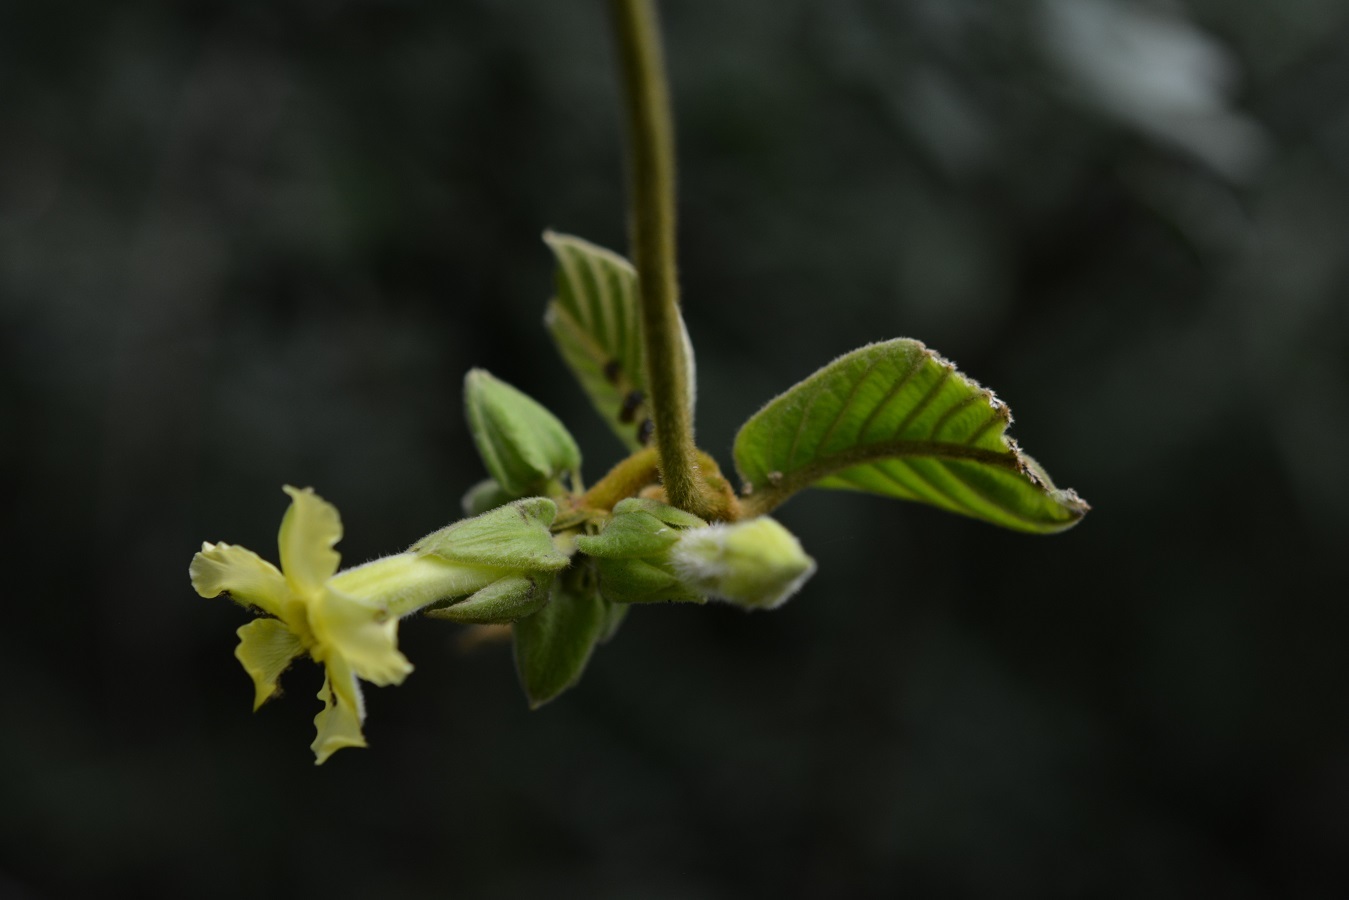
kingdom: Plantae
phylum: Tracheophyta
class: Magnoliopsida
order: Gentianales
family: Apocynaceae
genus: Prestonia
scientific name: Prestonia mexicana
